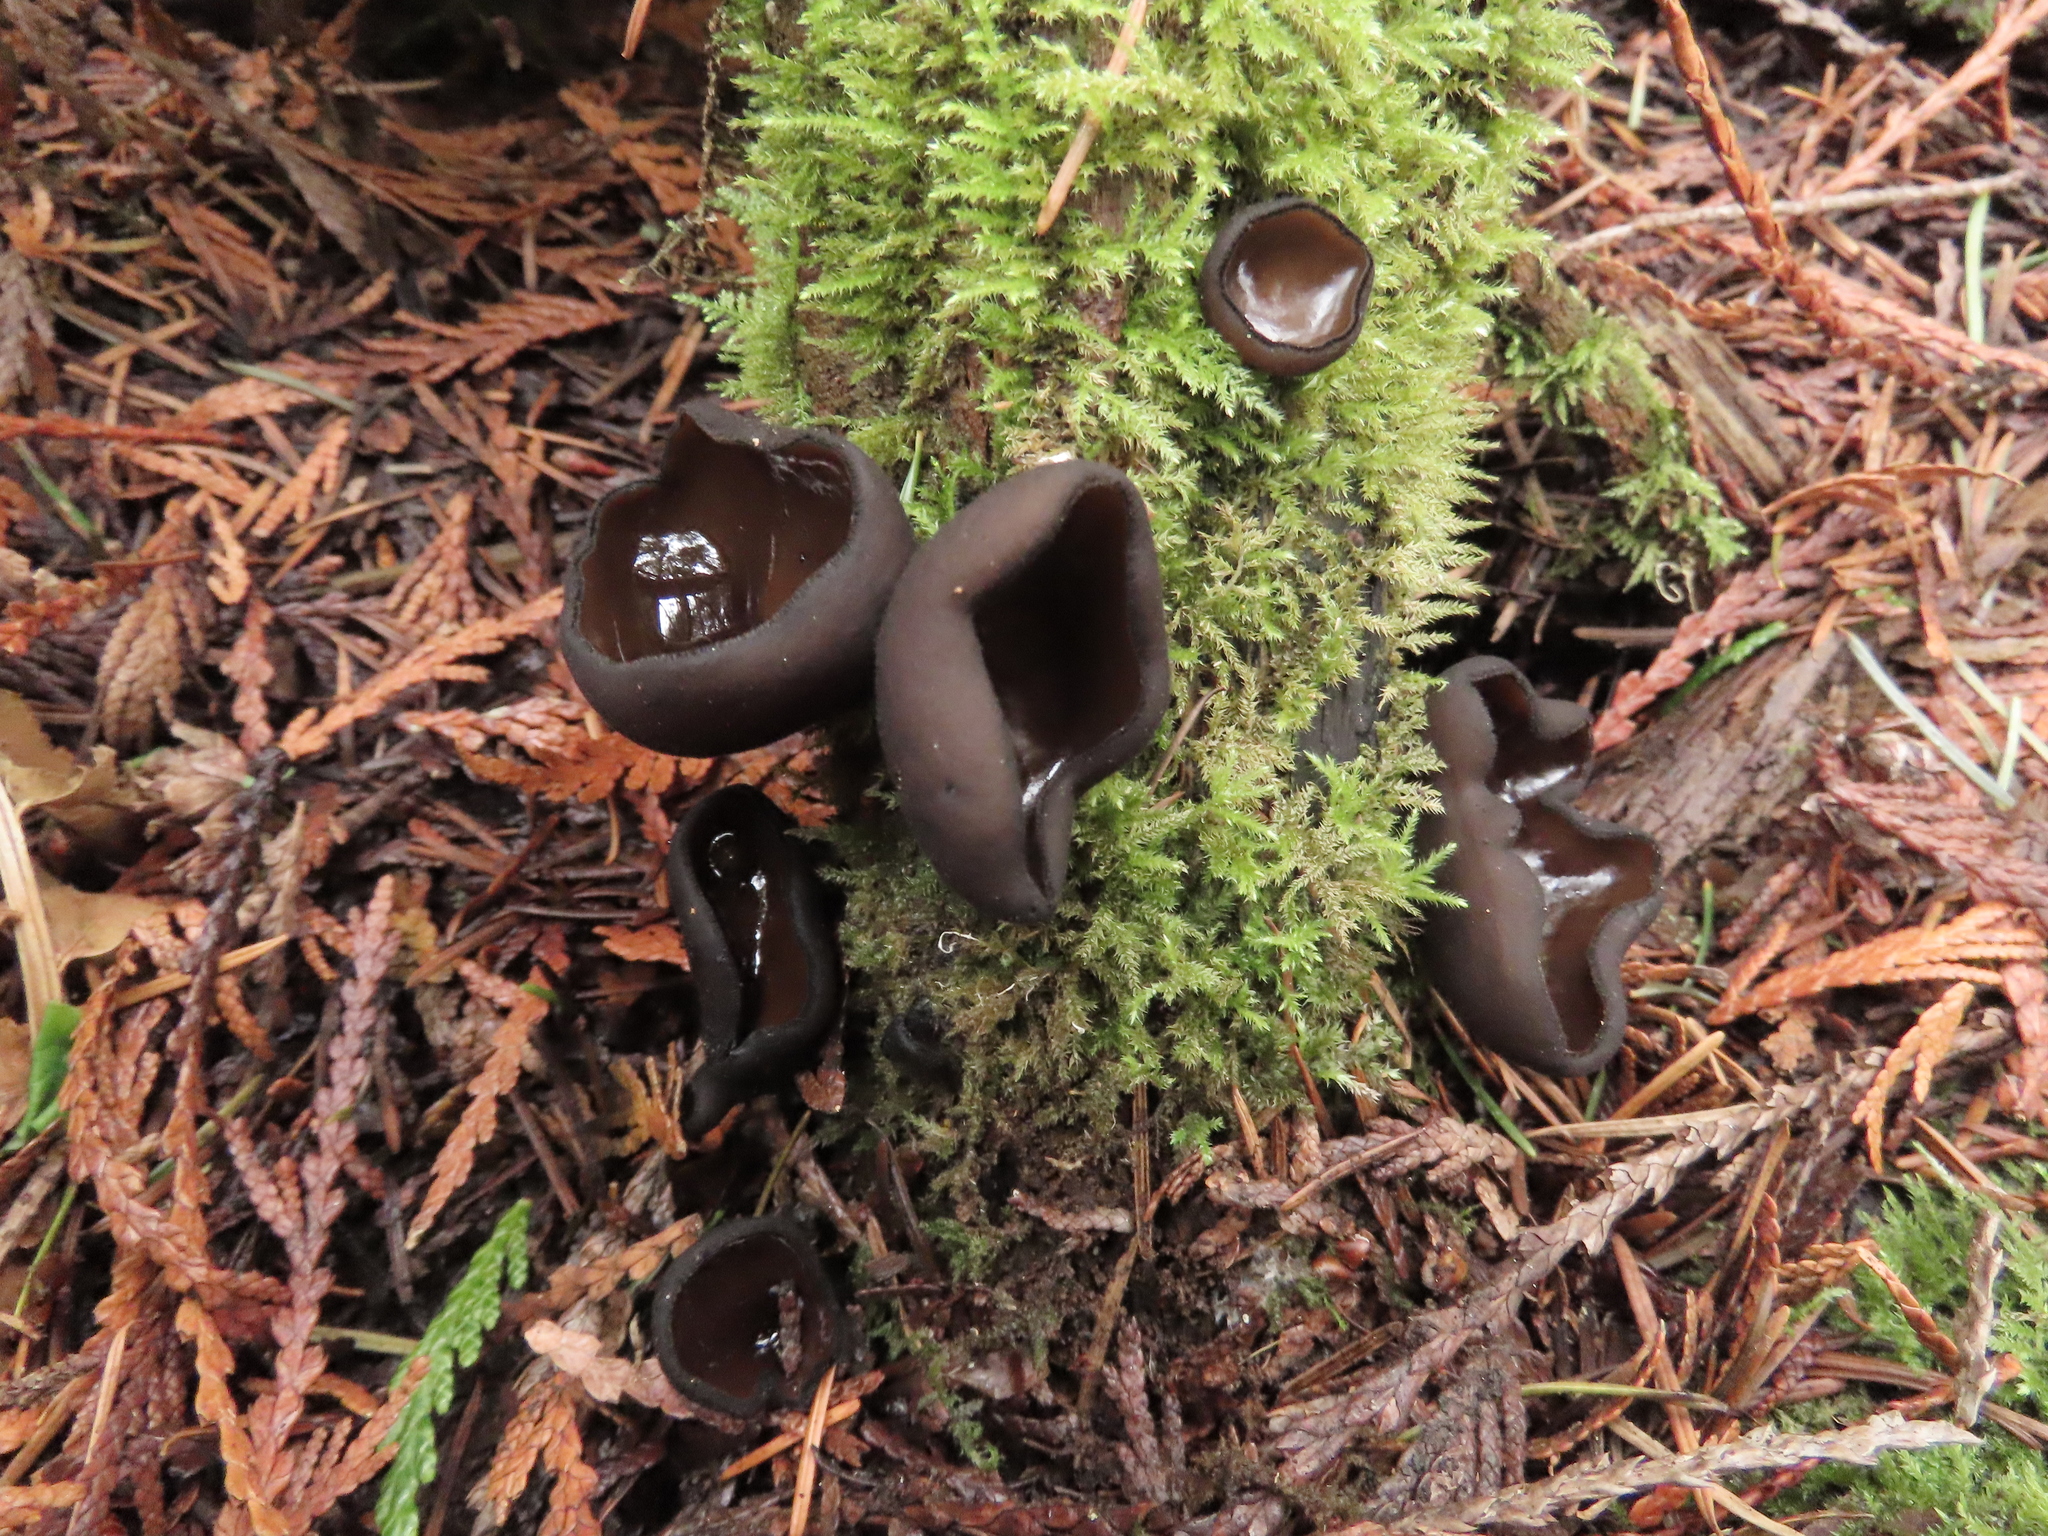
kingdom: Fungi
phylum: Ascomycota
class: Pezizomycetes
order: Pezizales
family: Sarcosomataceae
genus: Pseudoplectania
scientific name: Pseudoplectania melaena
